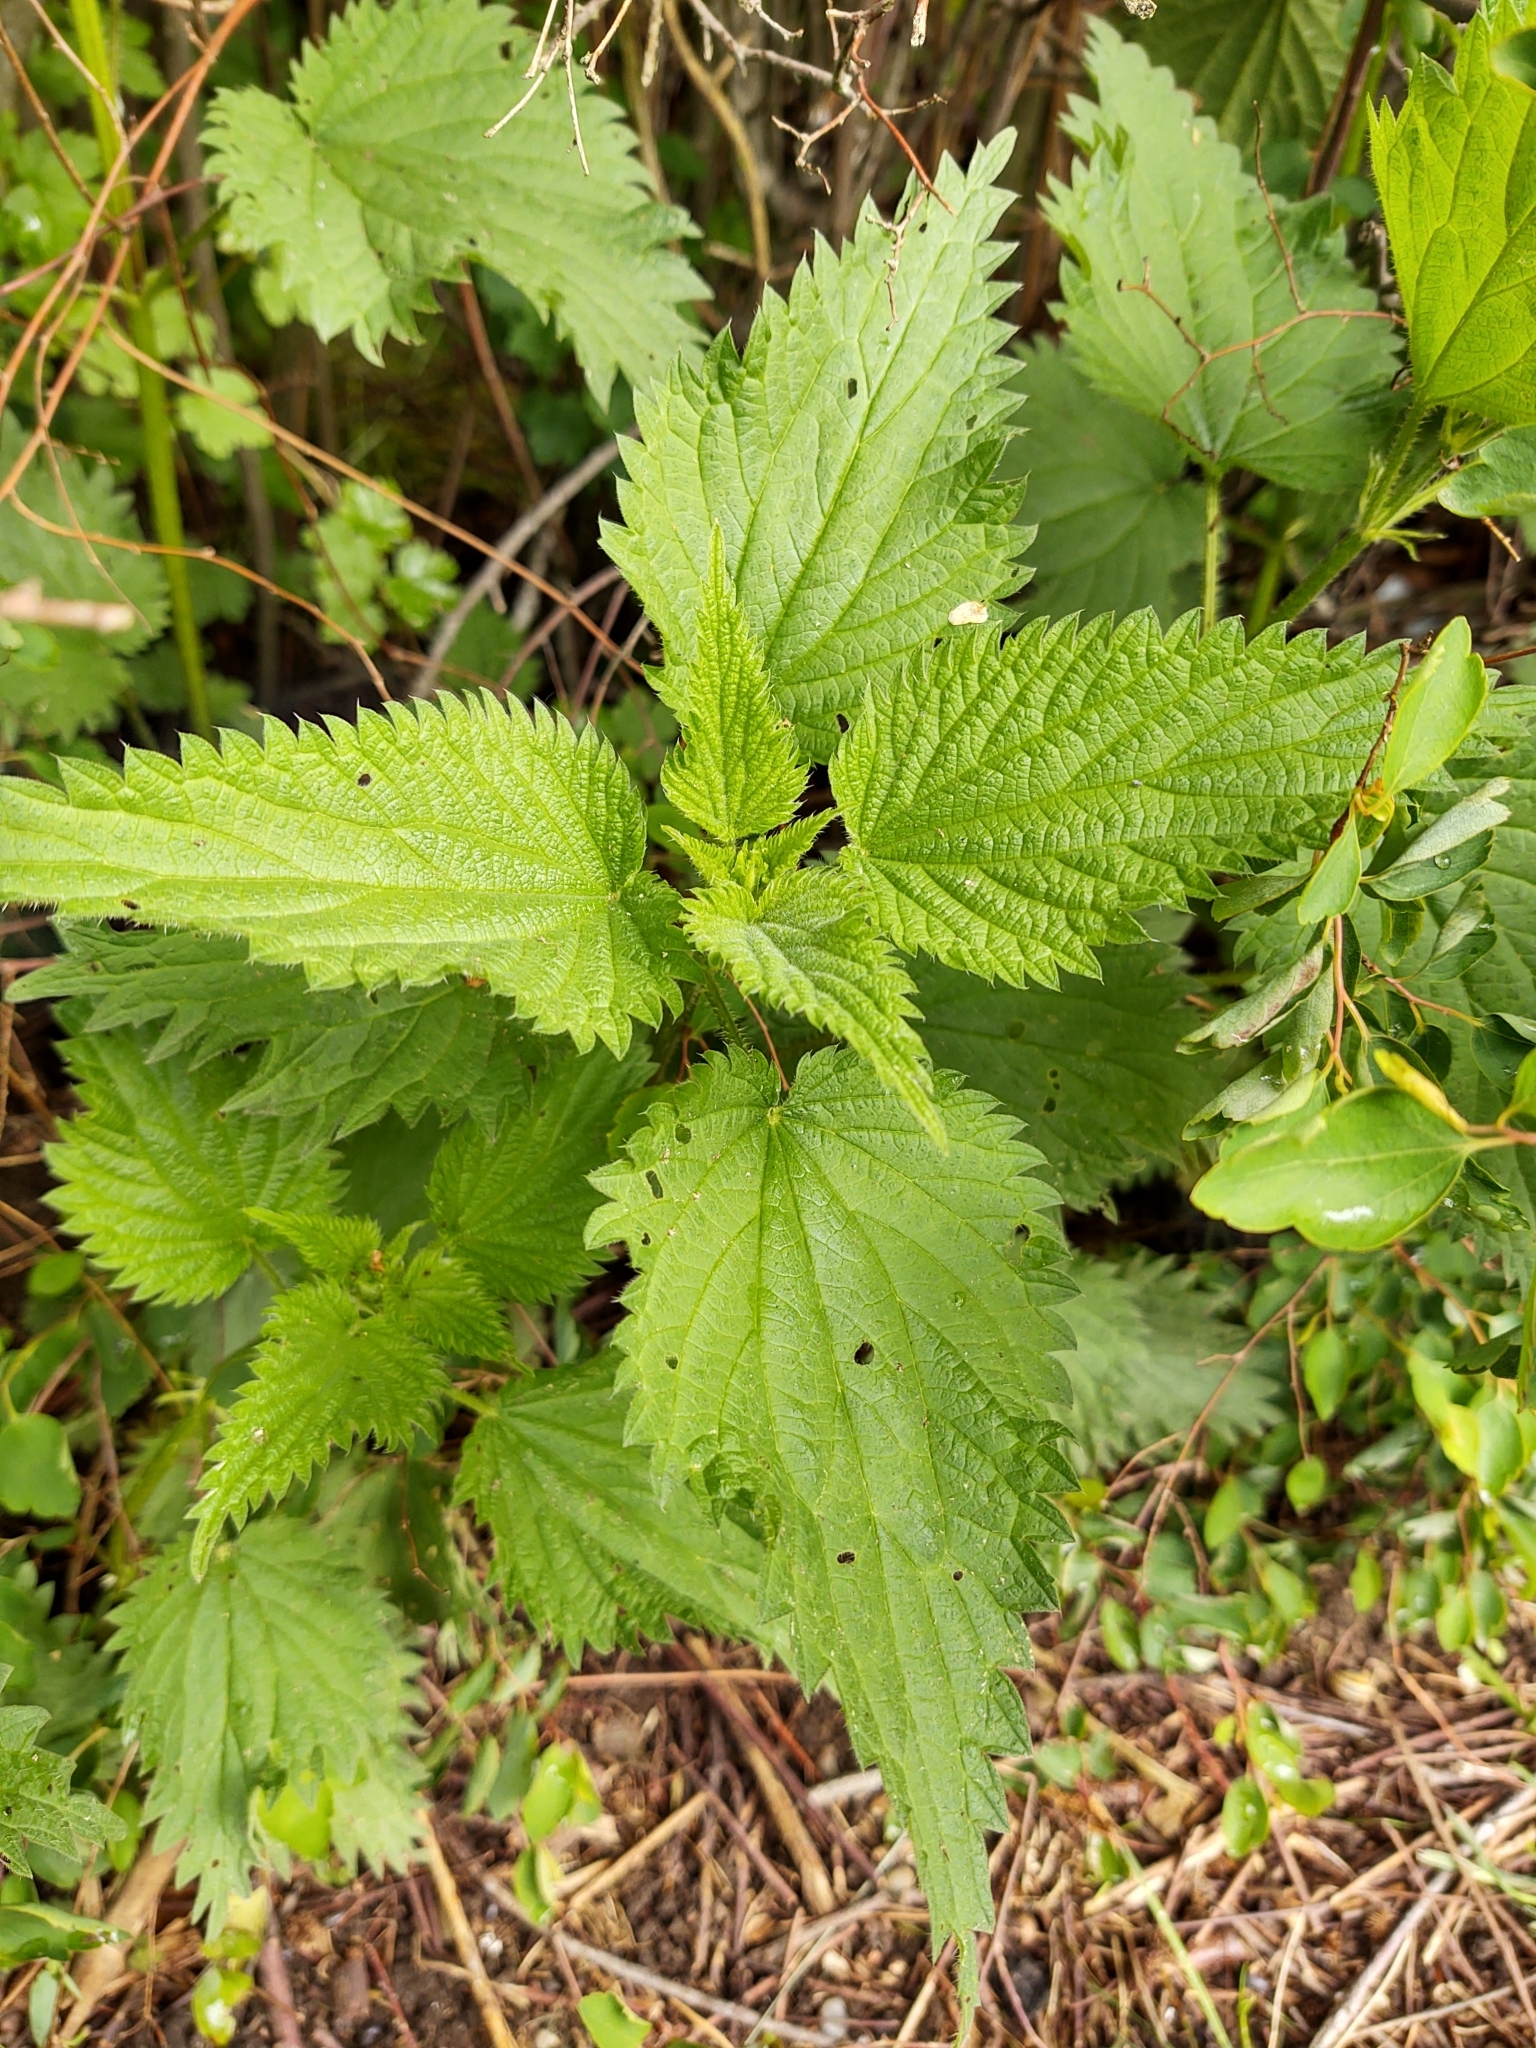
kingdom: Plantae
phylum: Tracheophyta
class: Magnoliopsida
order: Rosales
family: Urticaceae
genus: Urtica
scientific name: Urtica dioica
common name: Common nettle
